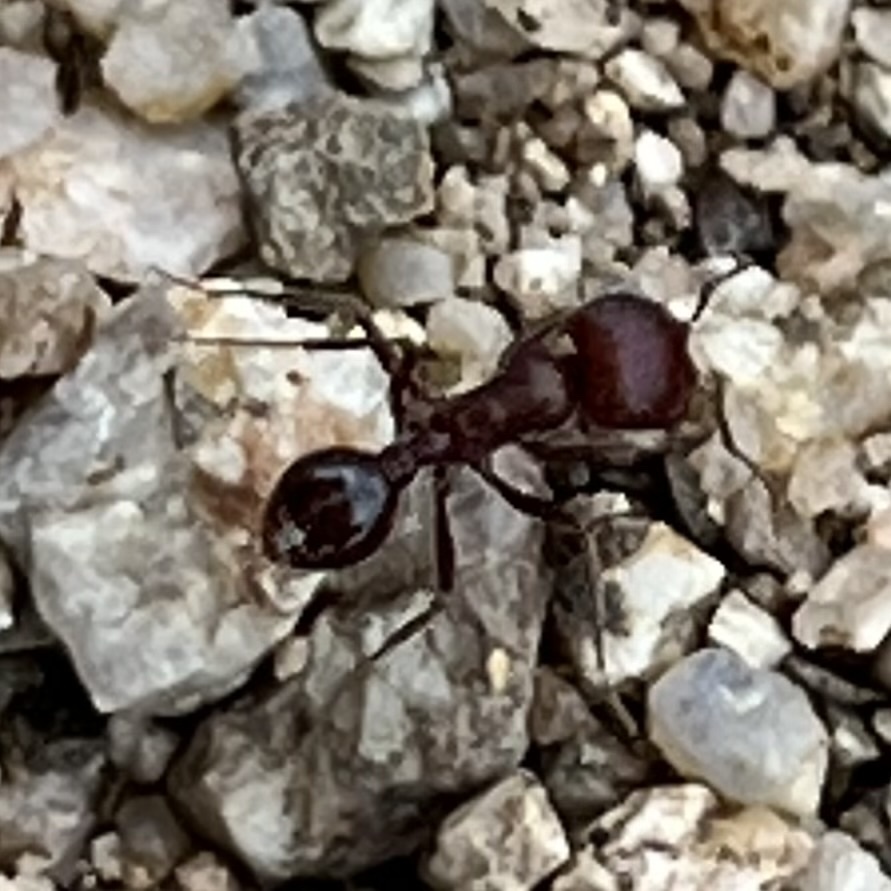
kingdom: Animalia
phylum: Arthropoda
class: Insecta
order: Hymenoptera
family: Formicidae
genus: Pogonomyrmex
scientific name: Pogonomyrmex
